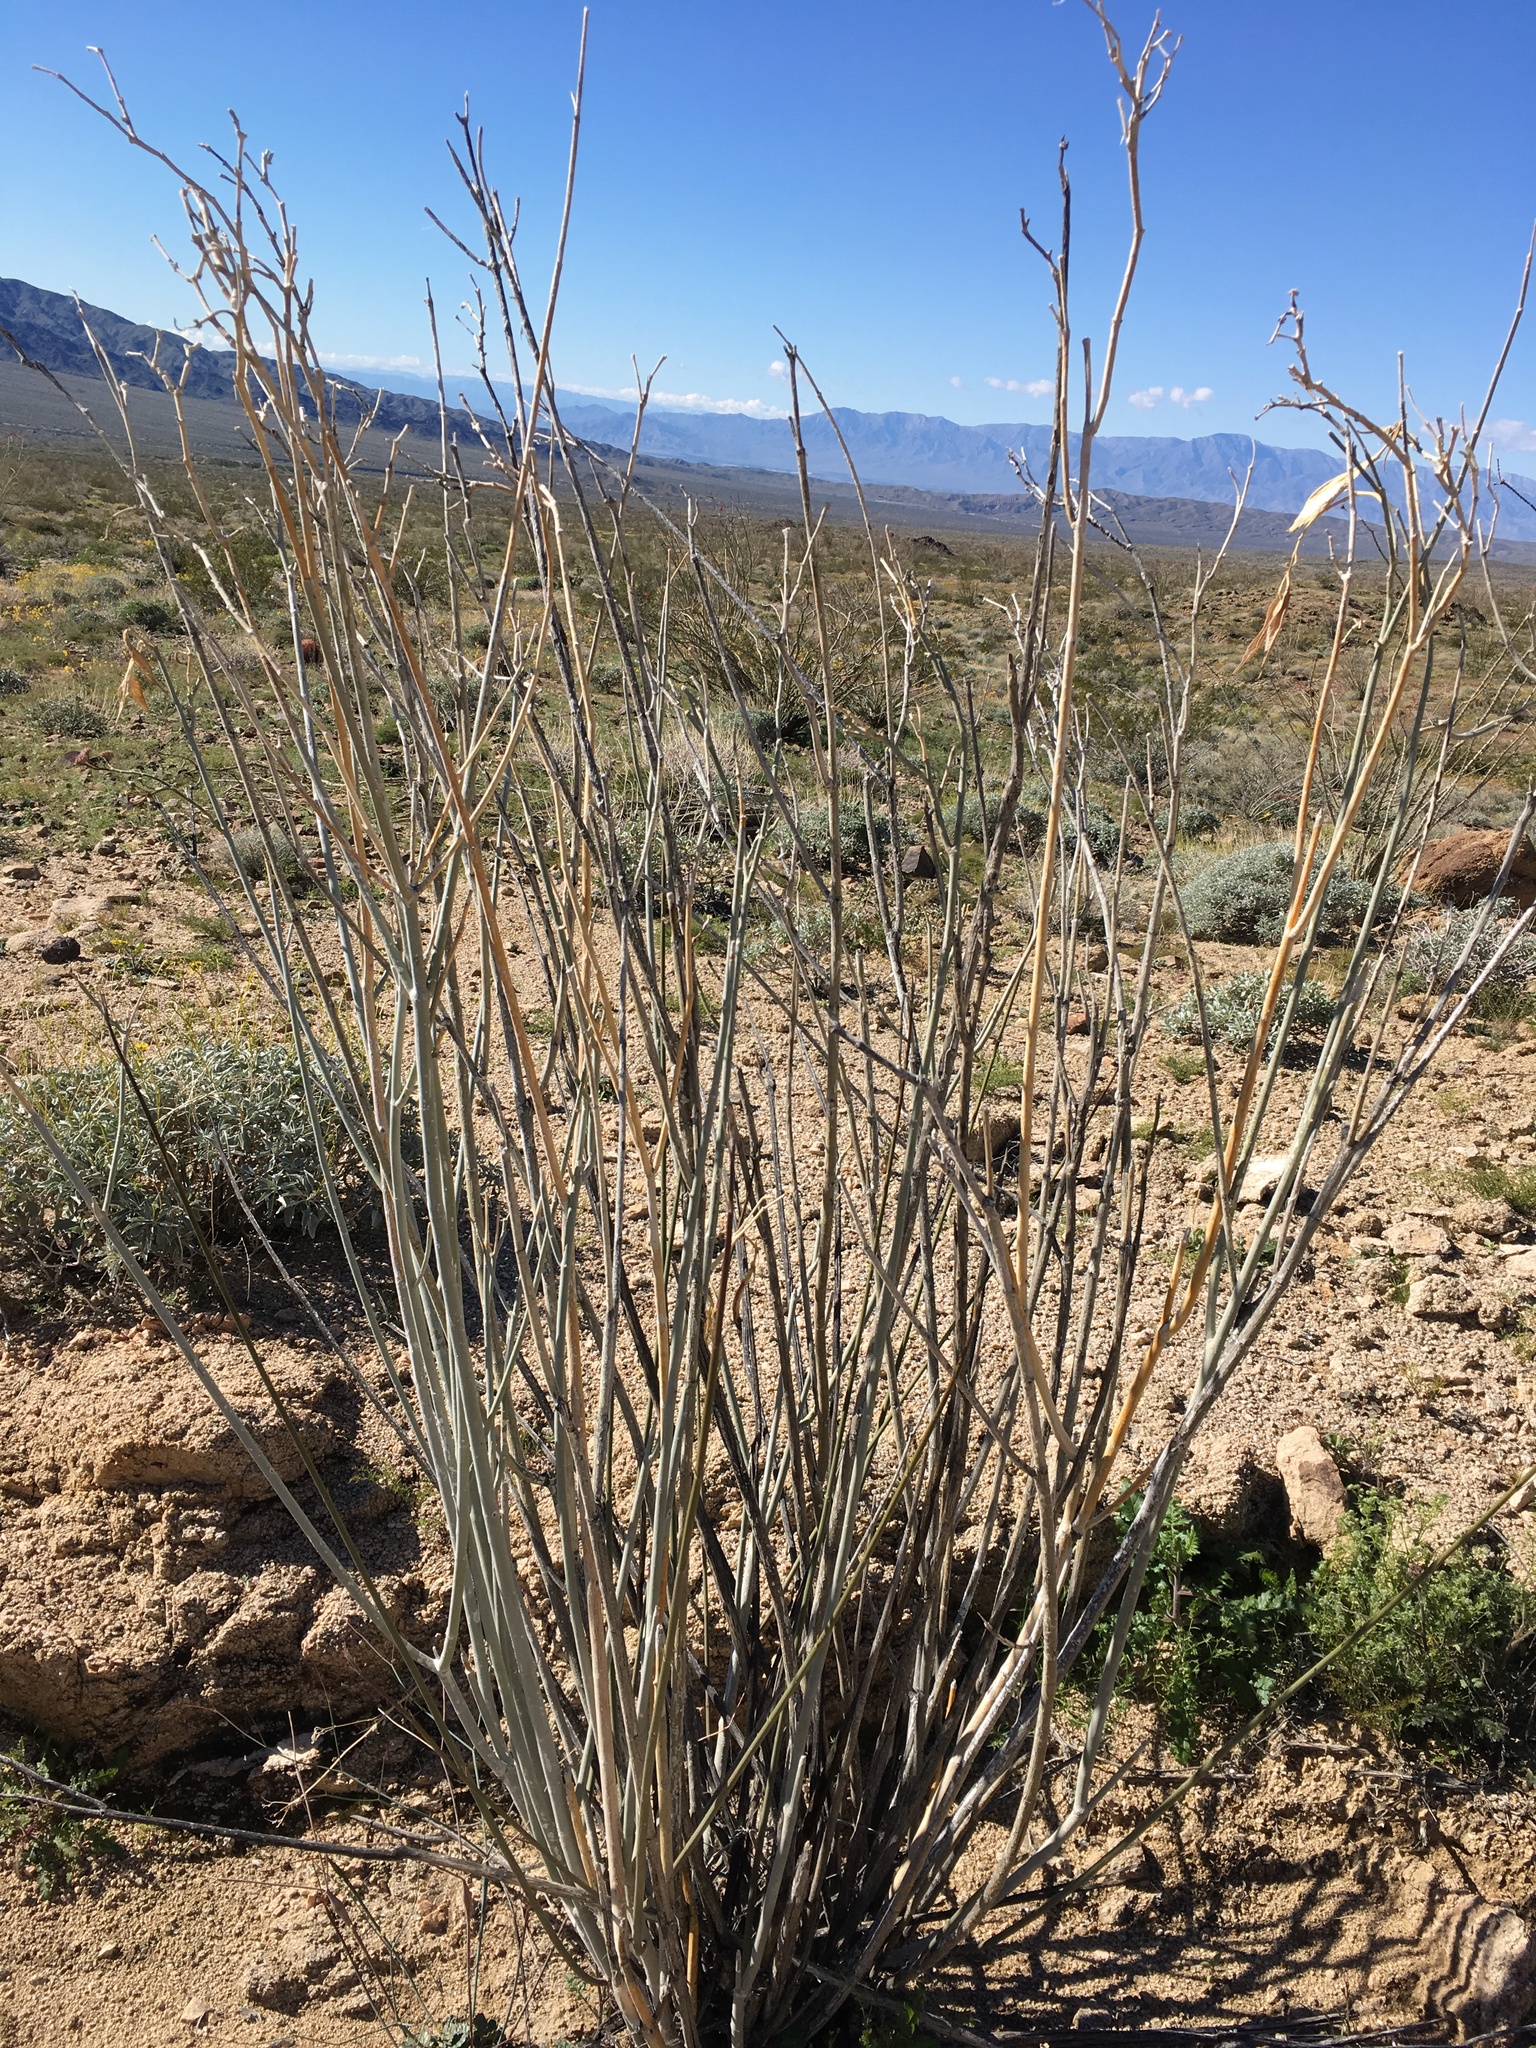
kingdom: Plantae
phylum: Tracheophyta
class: Magnoliopsida
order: Gentianales
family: Apocynaceae
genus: Asclepias
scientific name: Asclepias albicans
